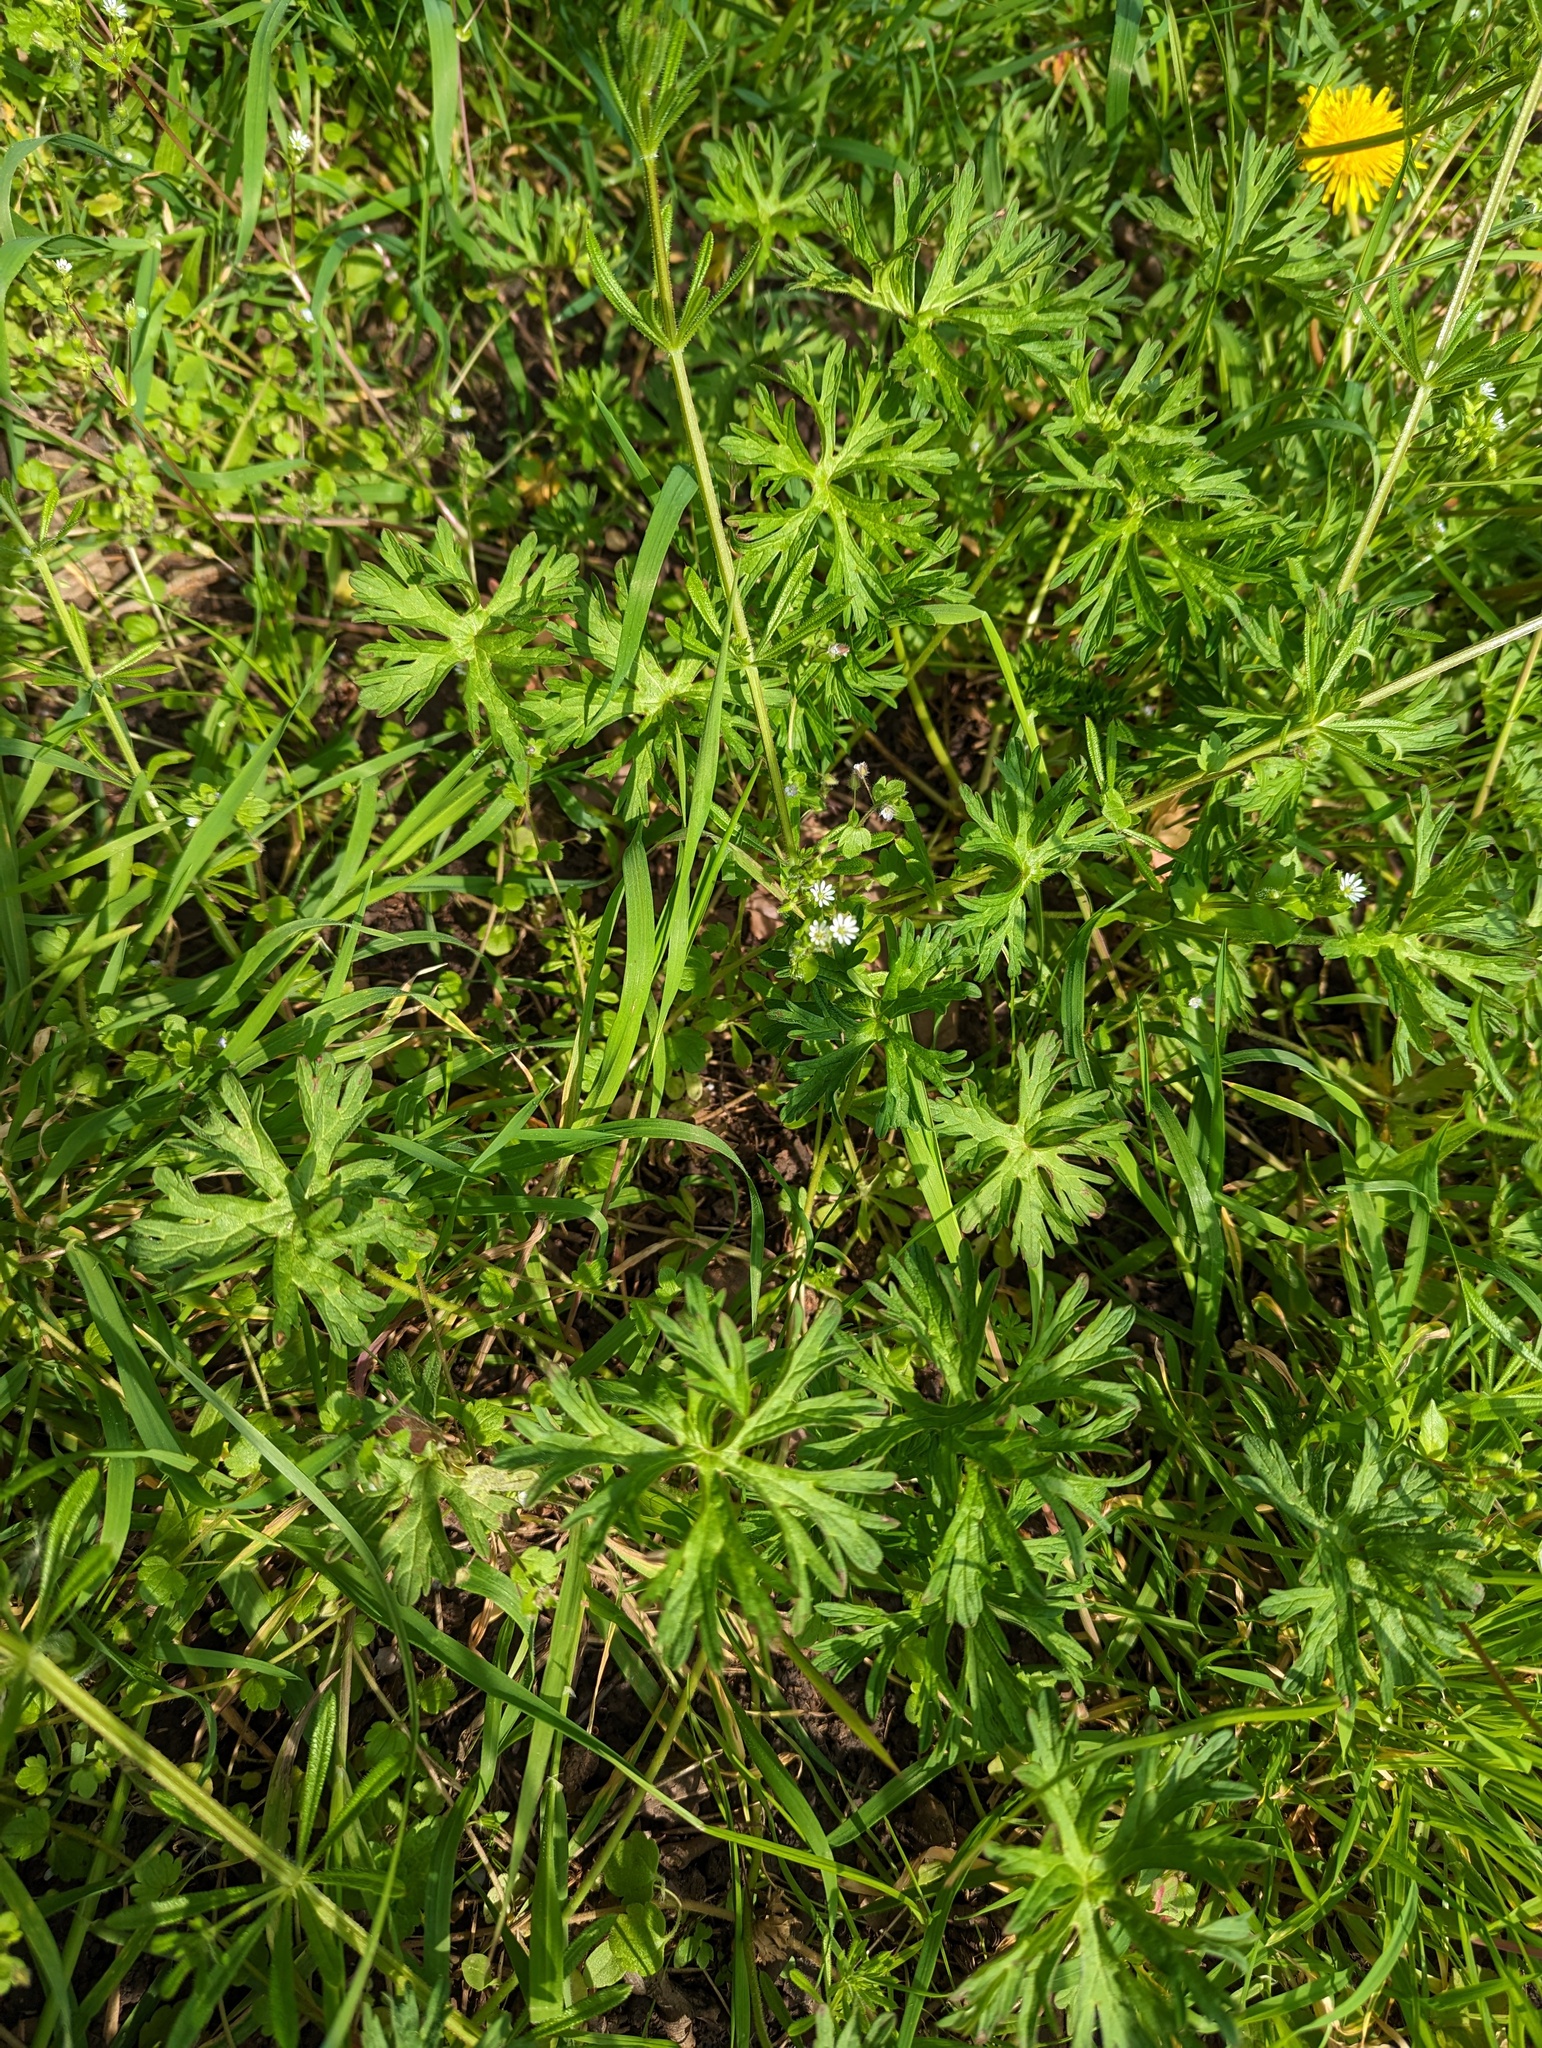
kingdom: Plantae
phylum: Tracheophyta
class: Magnoliopsida
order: Geraniales
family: Geraniaceae
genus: Geranium
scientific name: Geranium dissectum
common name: Cut-leaved crane's-bill
